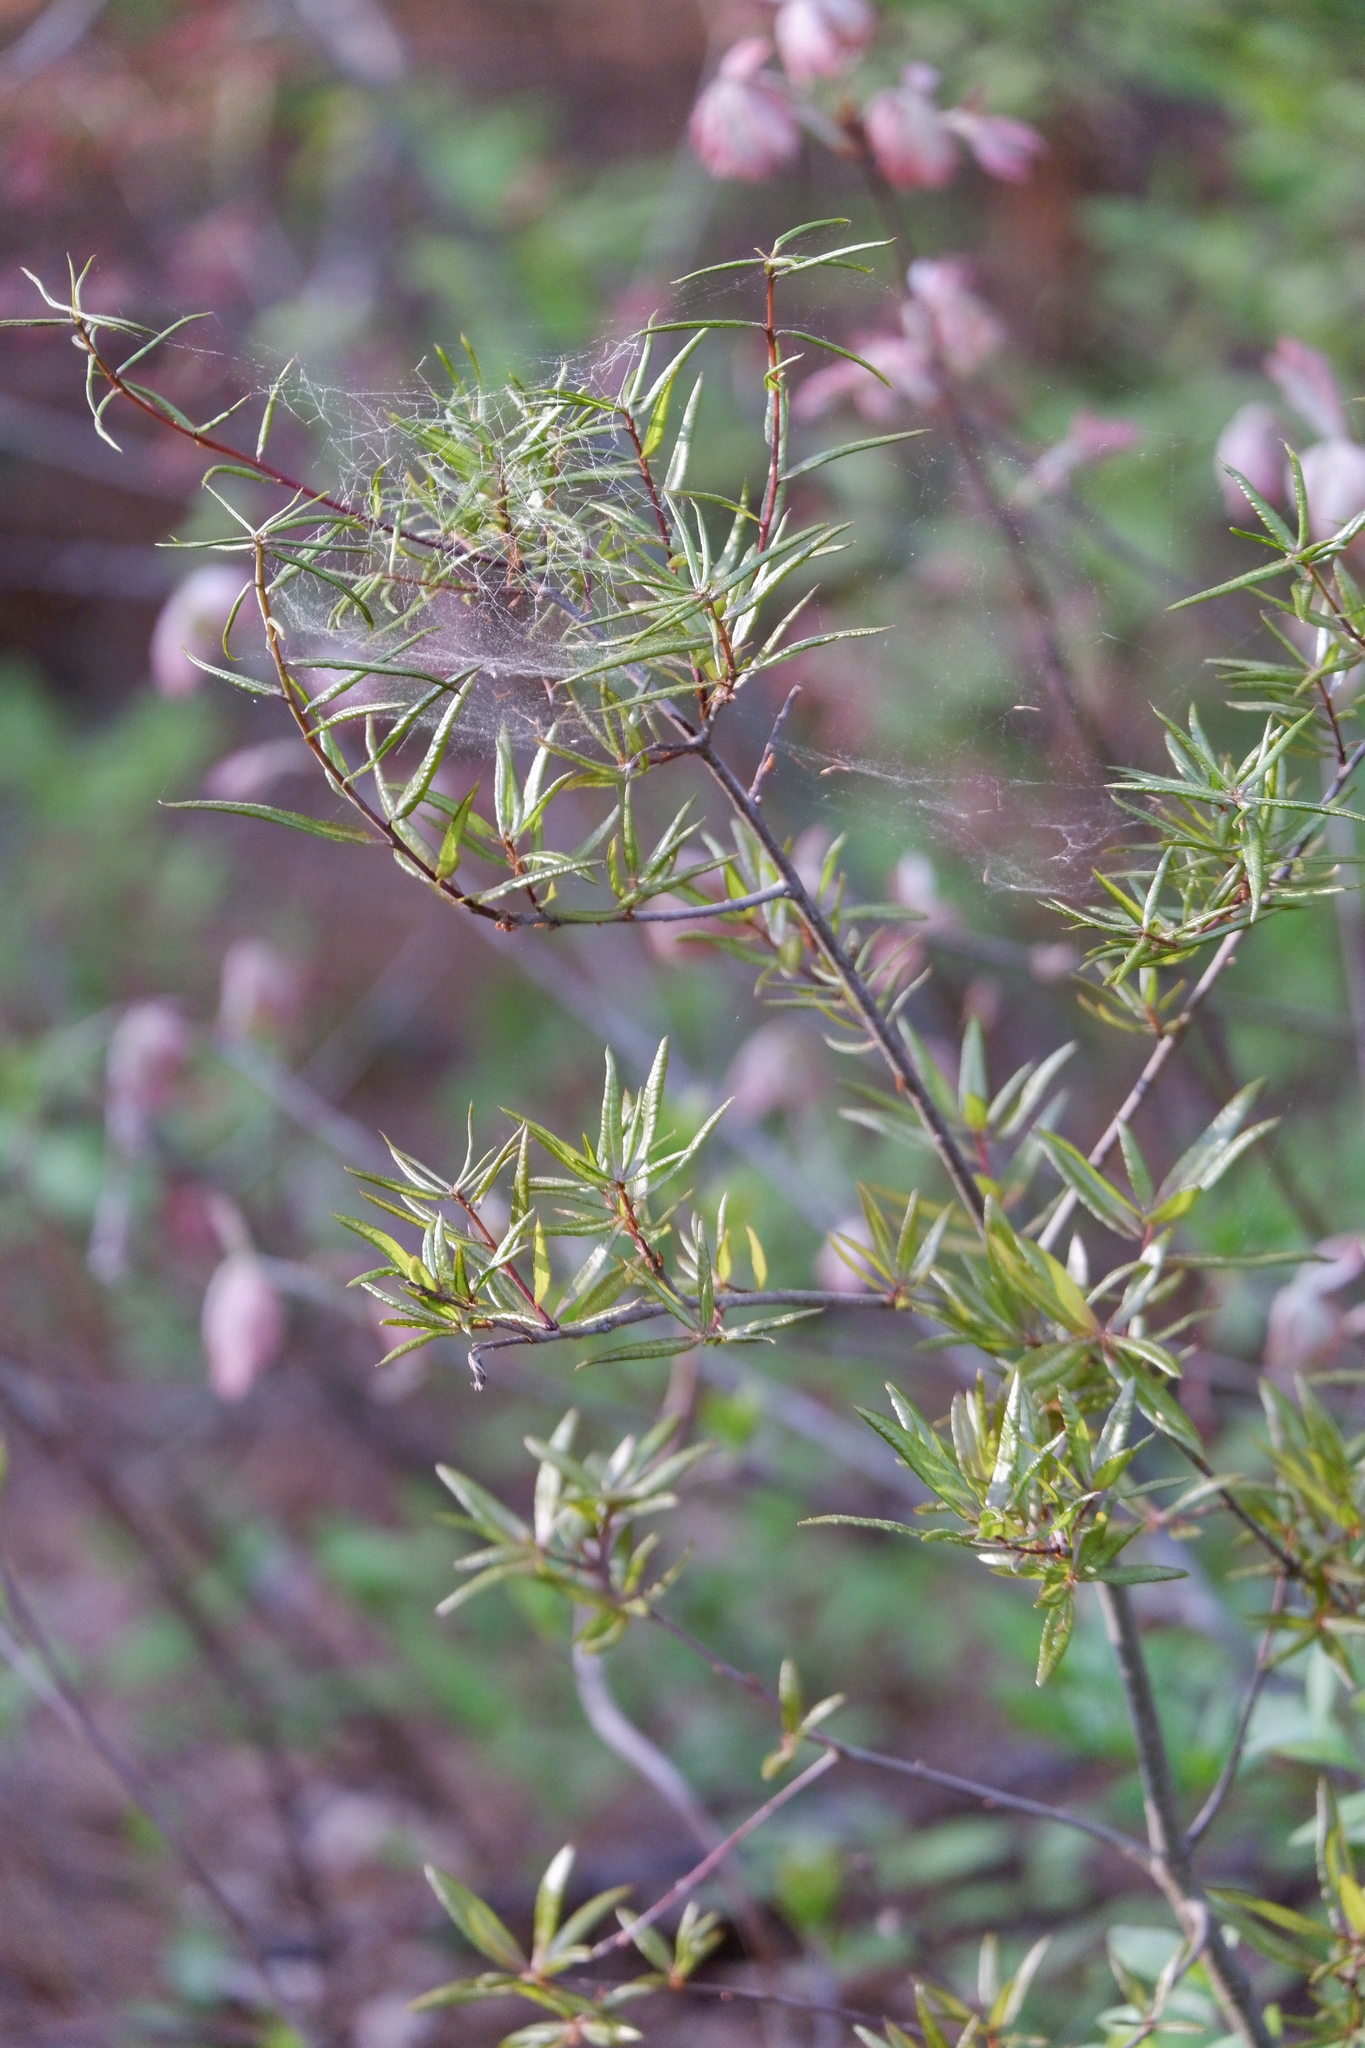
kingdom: Plantae
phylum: Tracheophyta
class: Magnoliopsida
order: Fagales
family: Fagaceae
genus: Quercus
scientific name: Quercus phellos
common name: Willow oak
